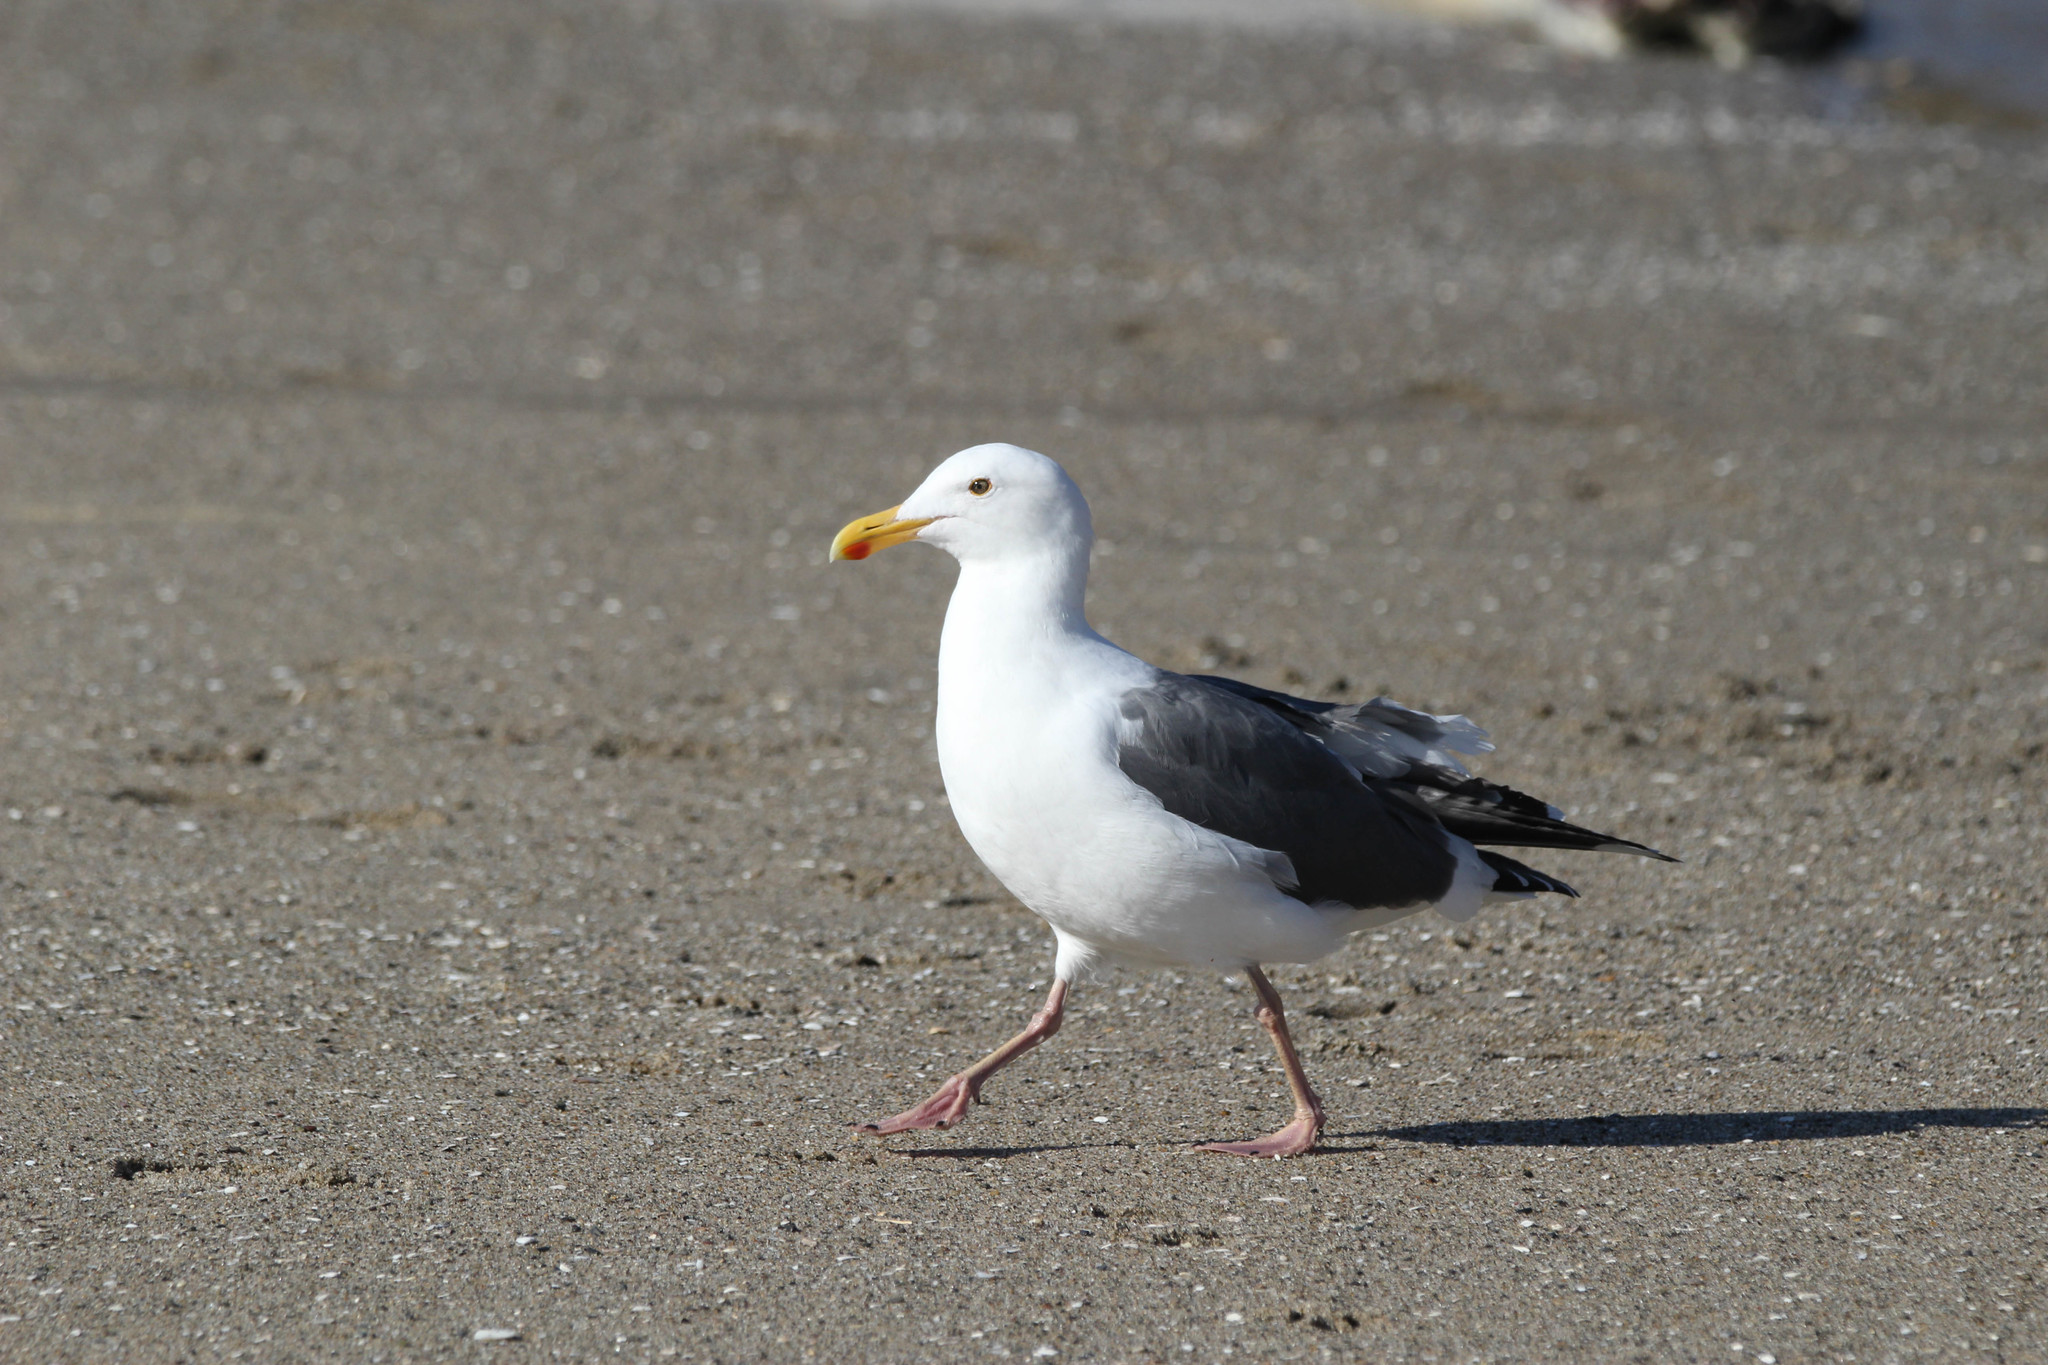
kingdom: Animalia
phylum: Chordata
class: Aves
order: Charadriiformes
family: Laridae
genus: Larus
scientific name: Larus occidentalis
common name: Western gull
